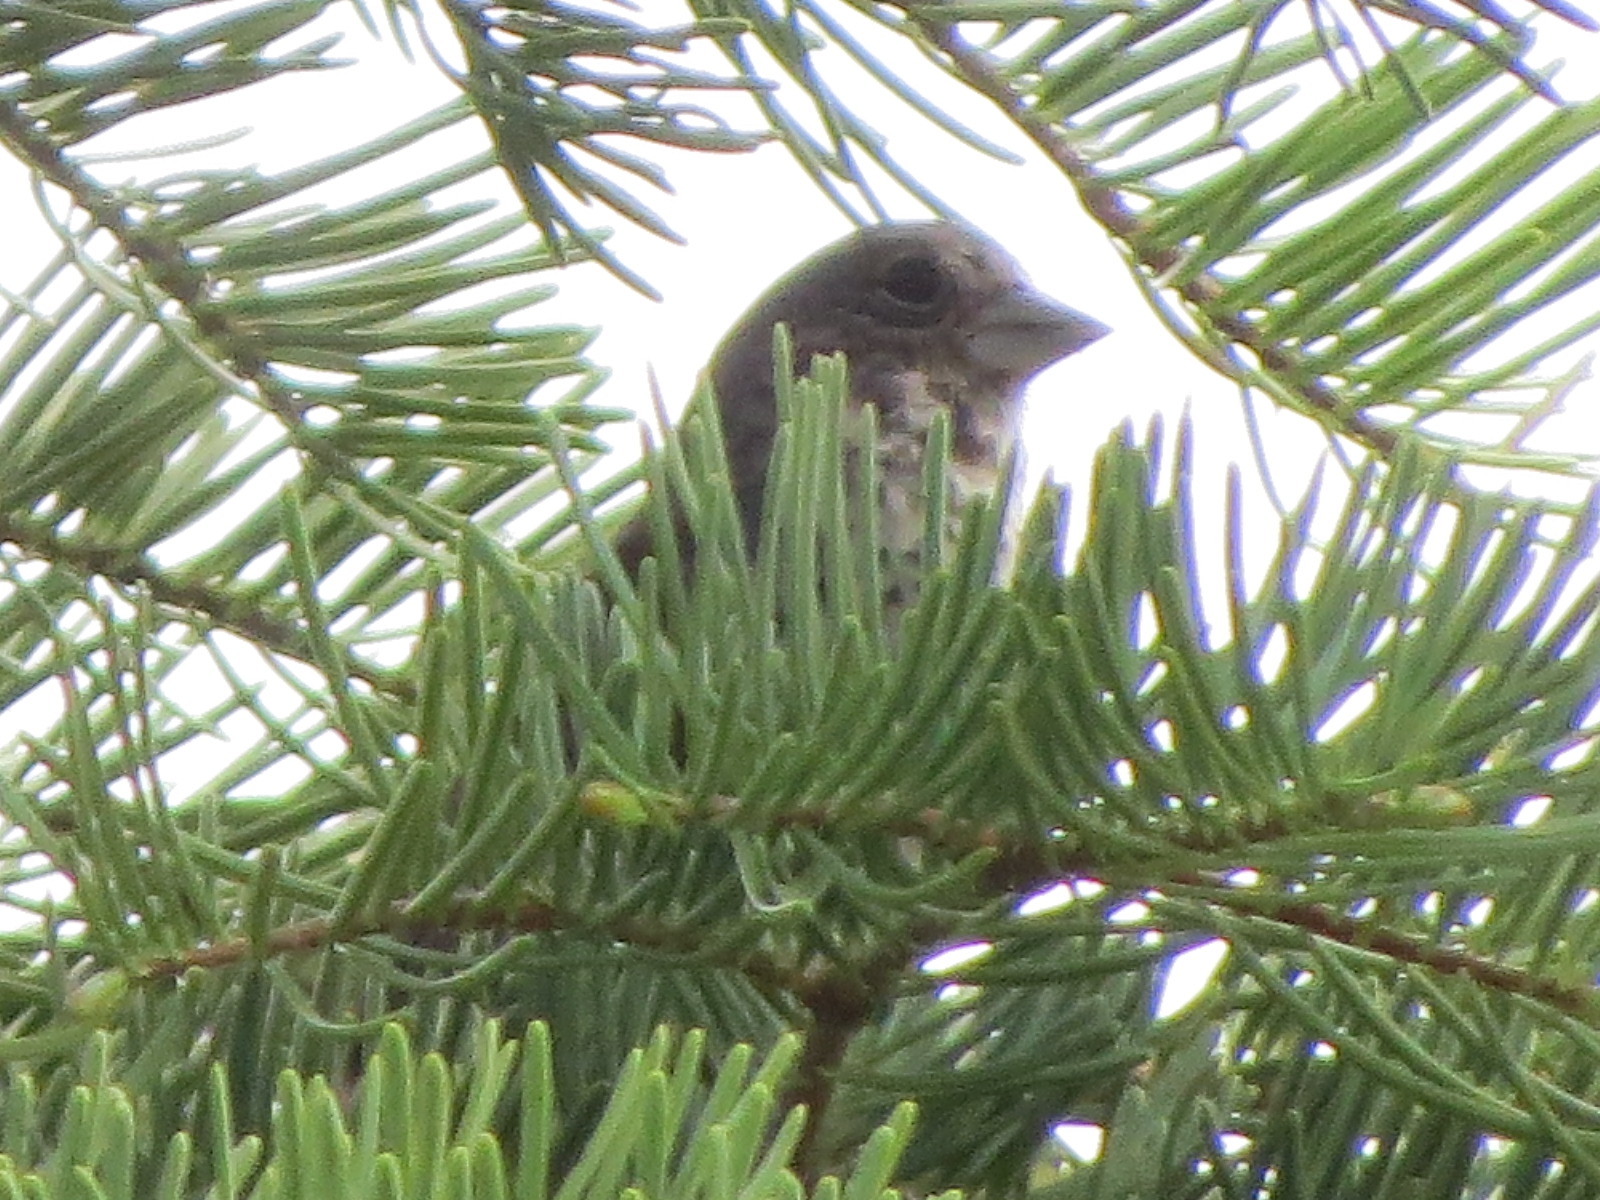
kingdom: Animalia
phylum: Arthropoda
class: Insecta
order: Lepidoptera
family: Nymphalidae
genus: Eresia
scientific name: Eresia aveyrona
